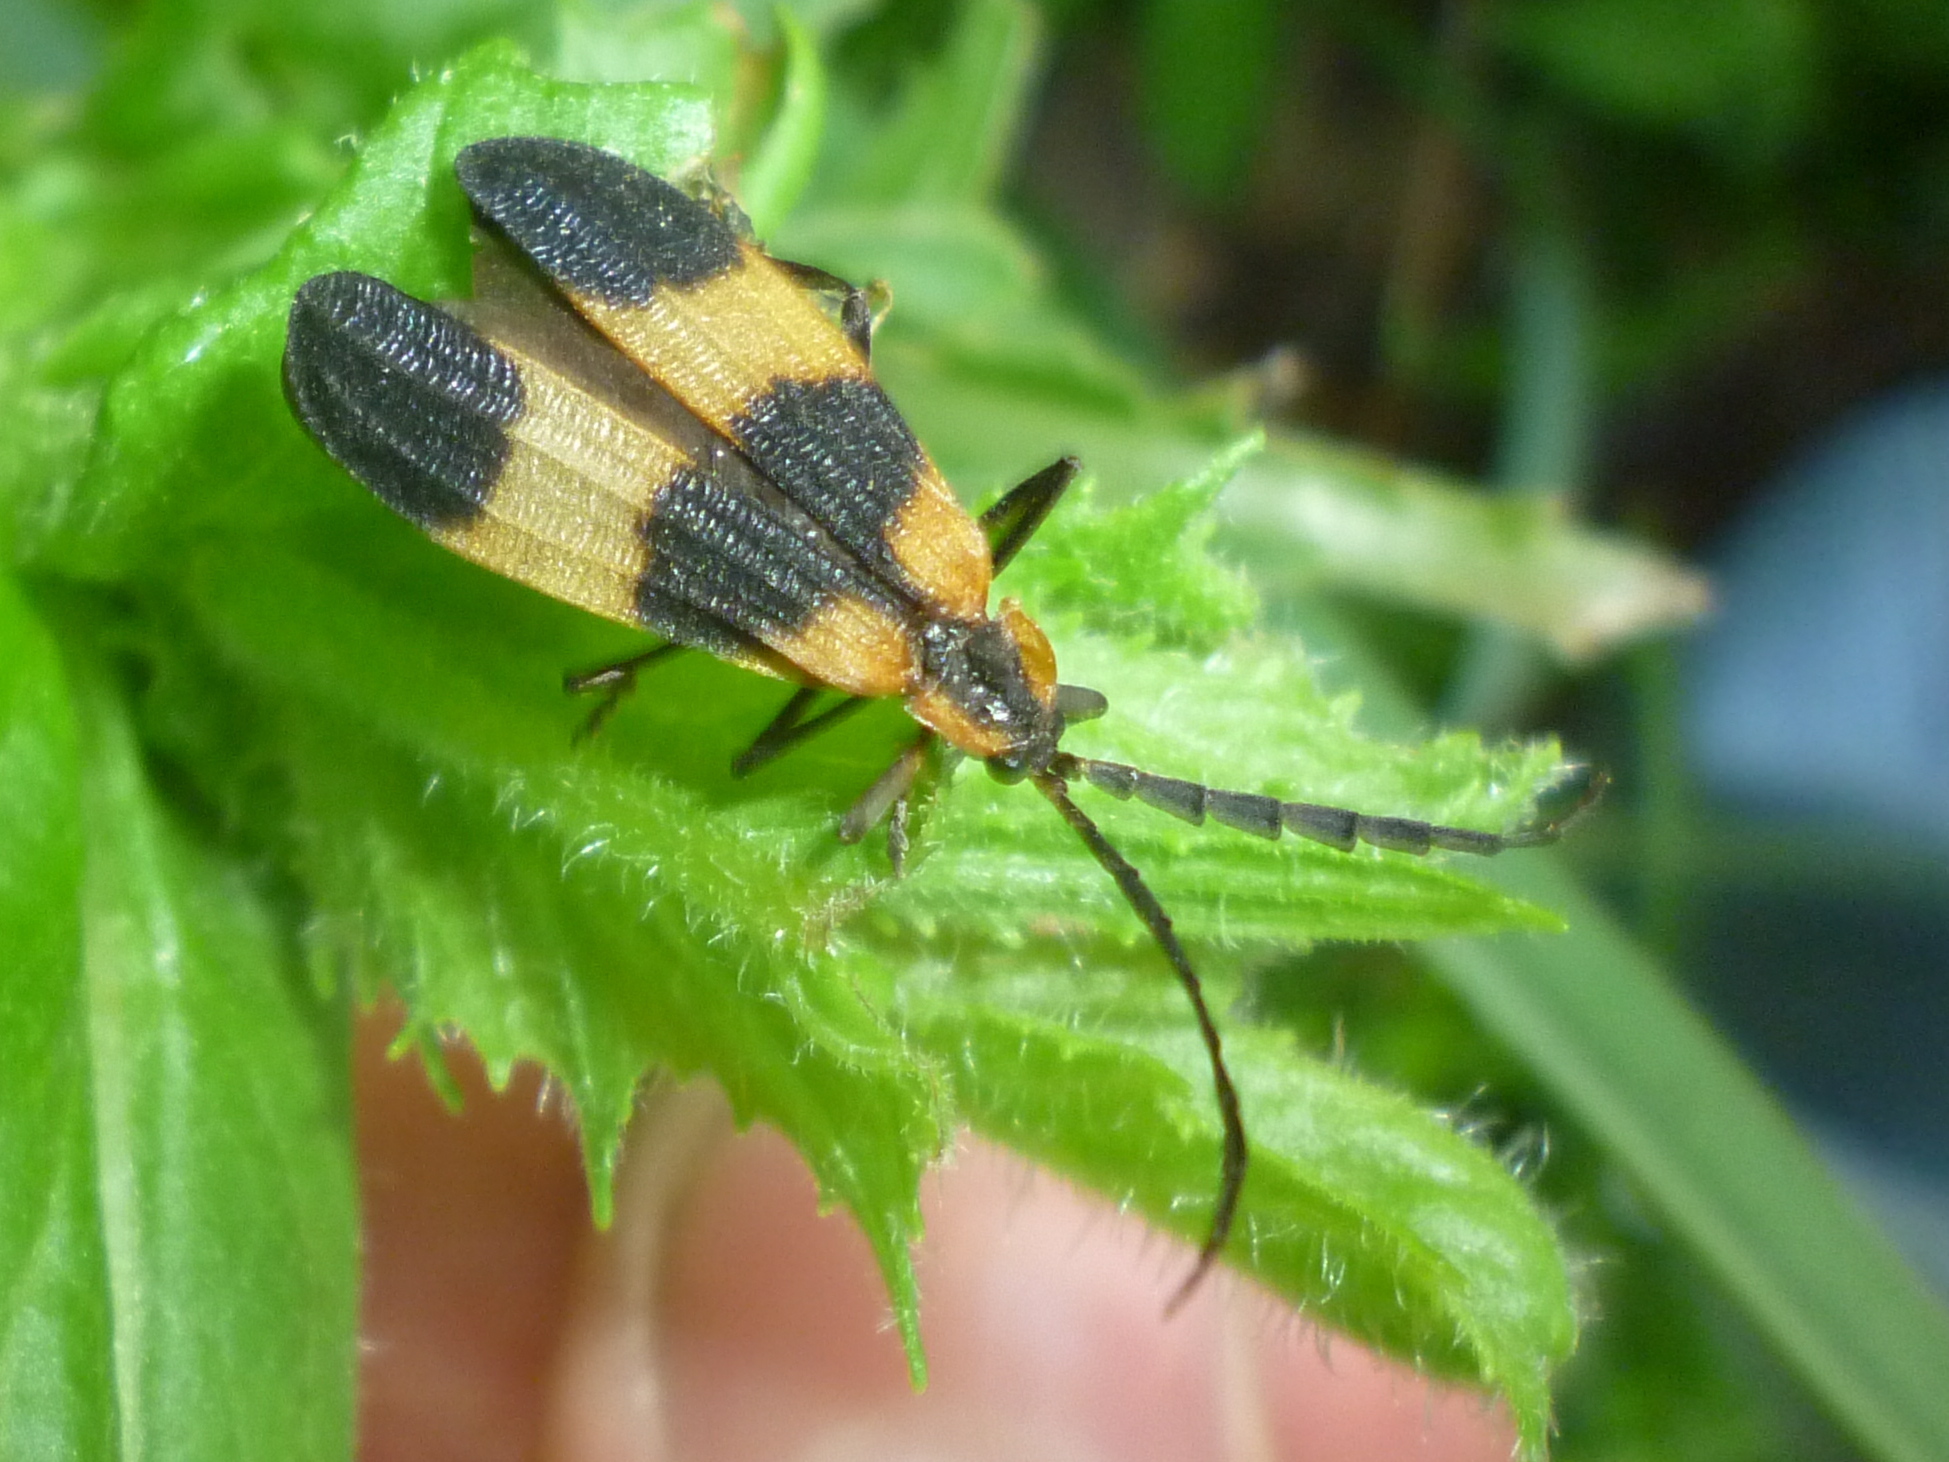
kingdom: Animalia
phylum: Arthropoda
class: Insecta
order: Coleoptera
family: Lycidae
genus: Calopteron
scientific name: Calopteron reticulatum
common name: Banded net-winged beetle
